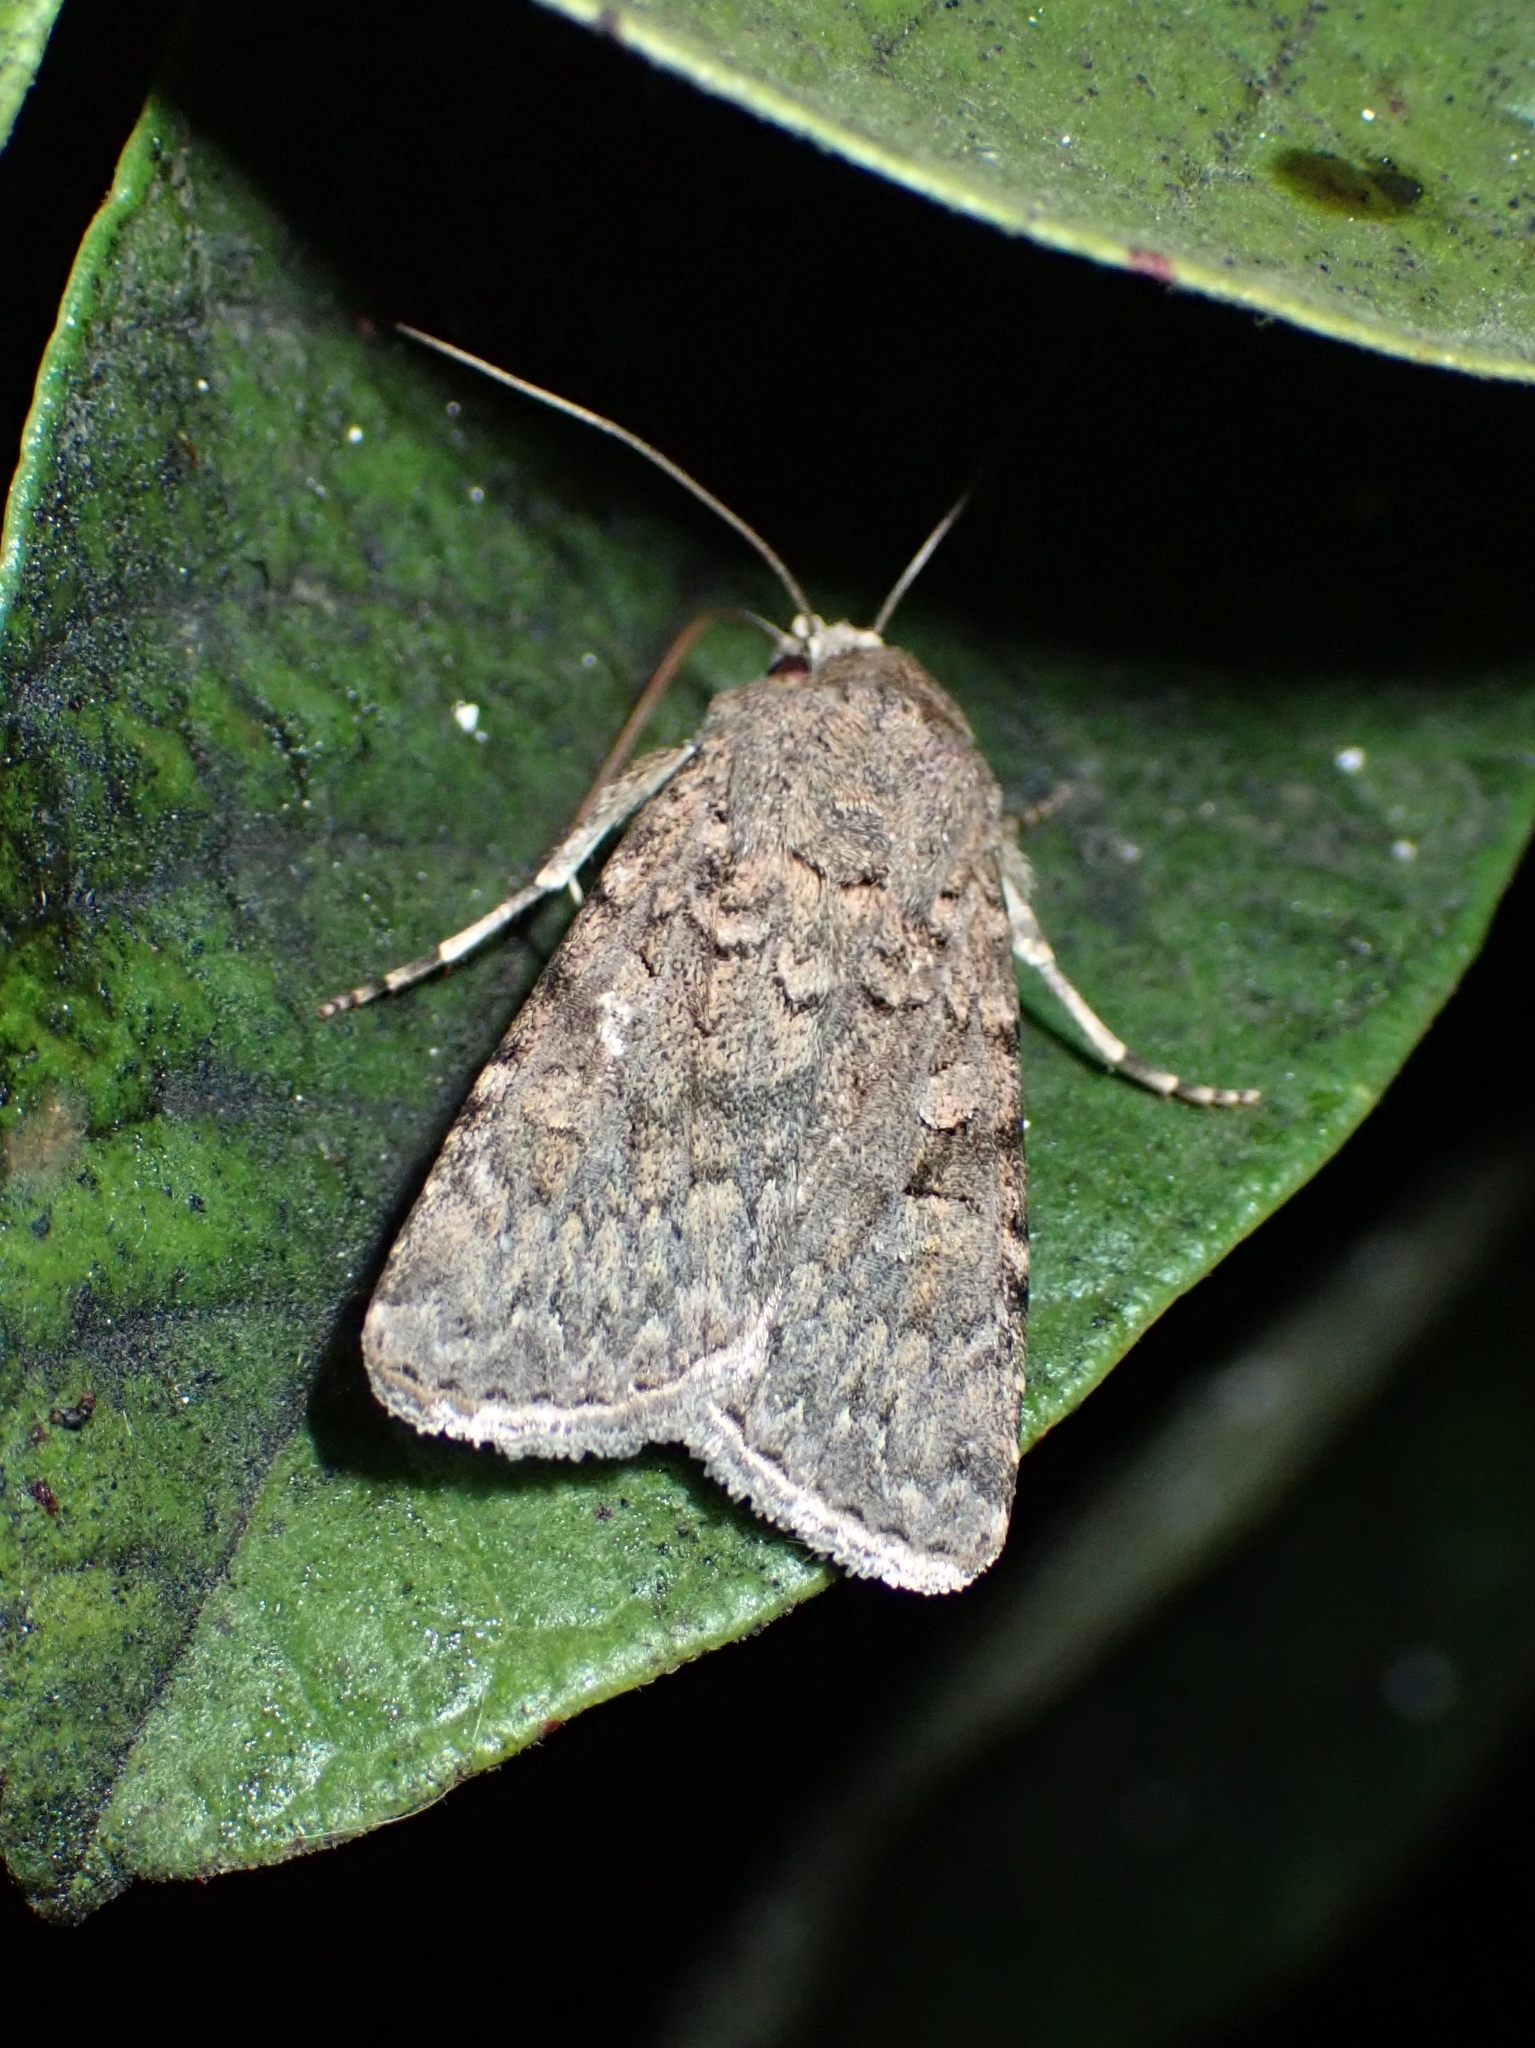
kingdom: Animalia
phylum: Arthropoda
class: Insecta
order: Lepidoptera
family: Noctuidae
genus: Euxoa
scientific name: Euxoa canariensis
